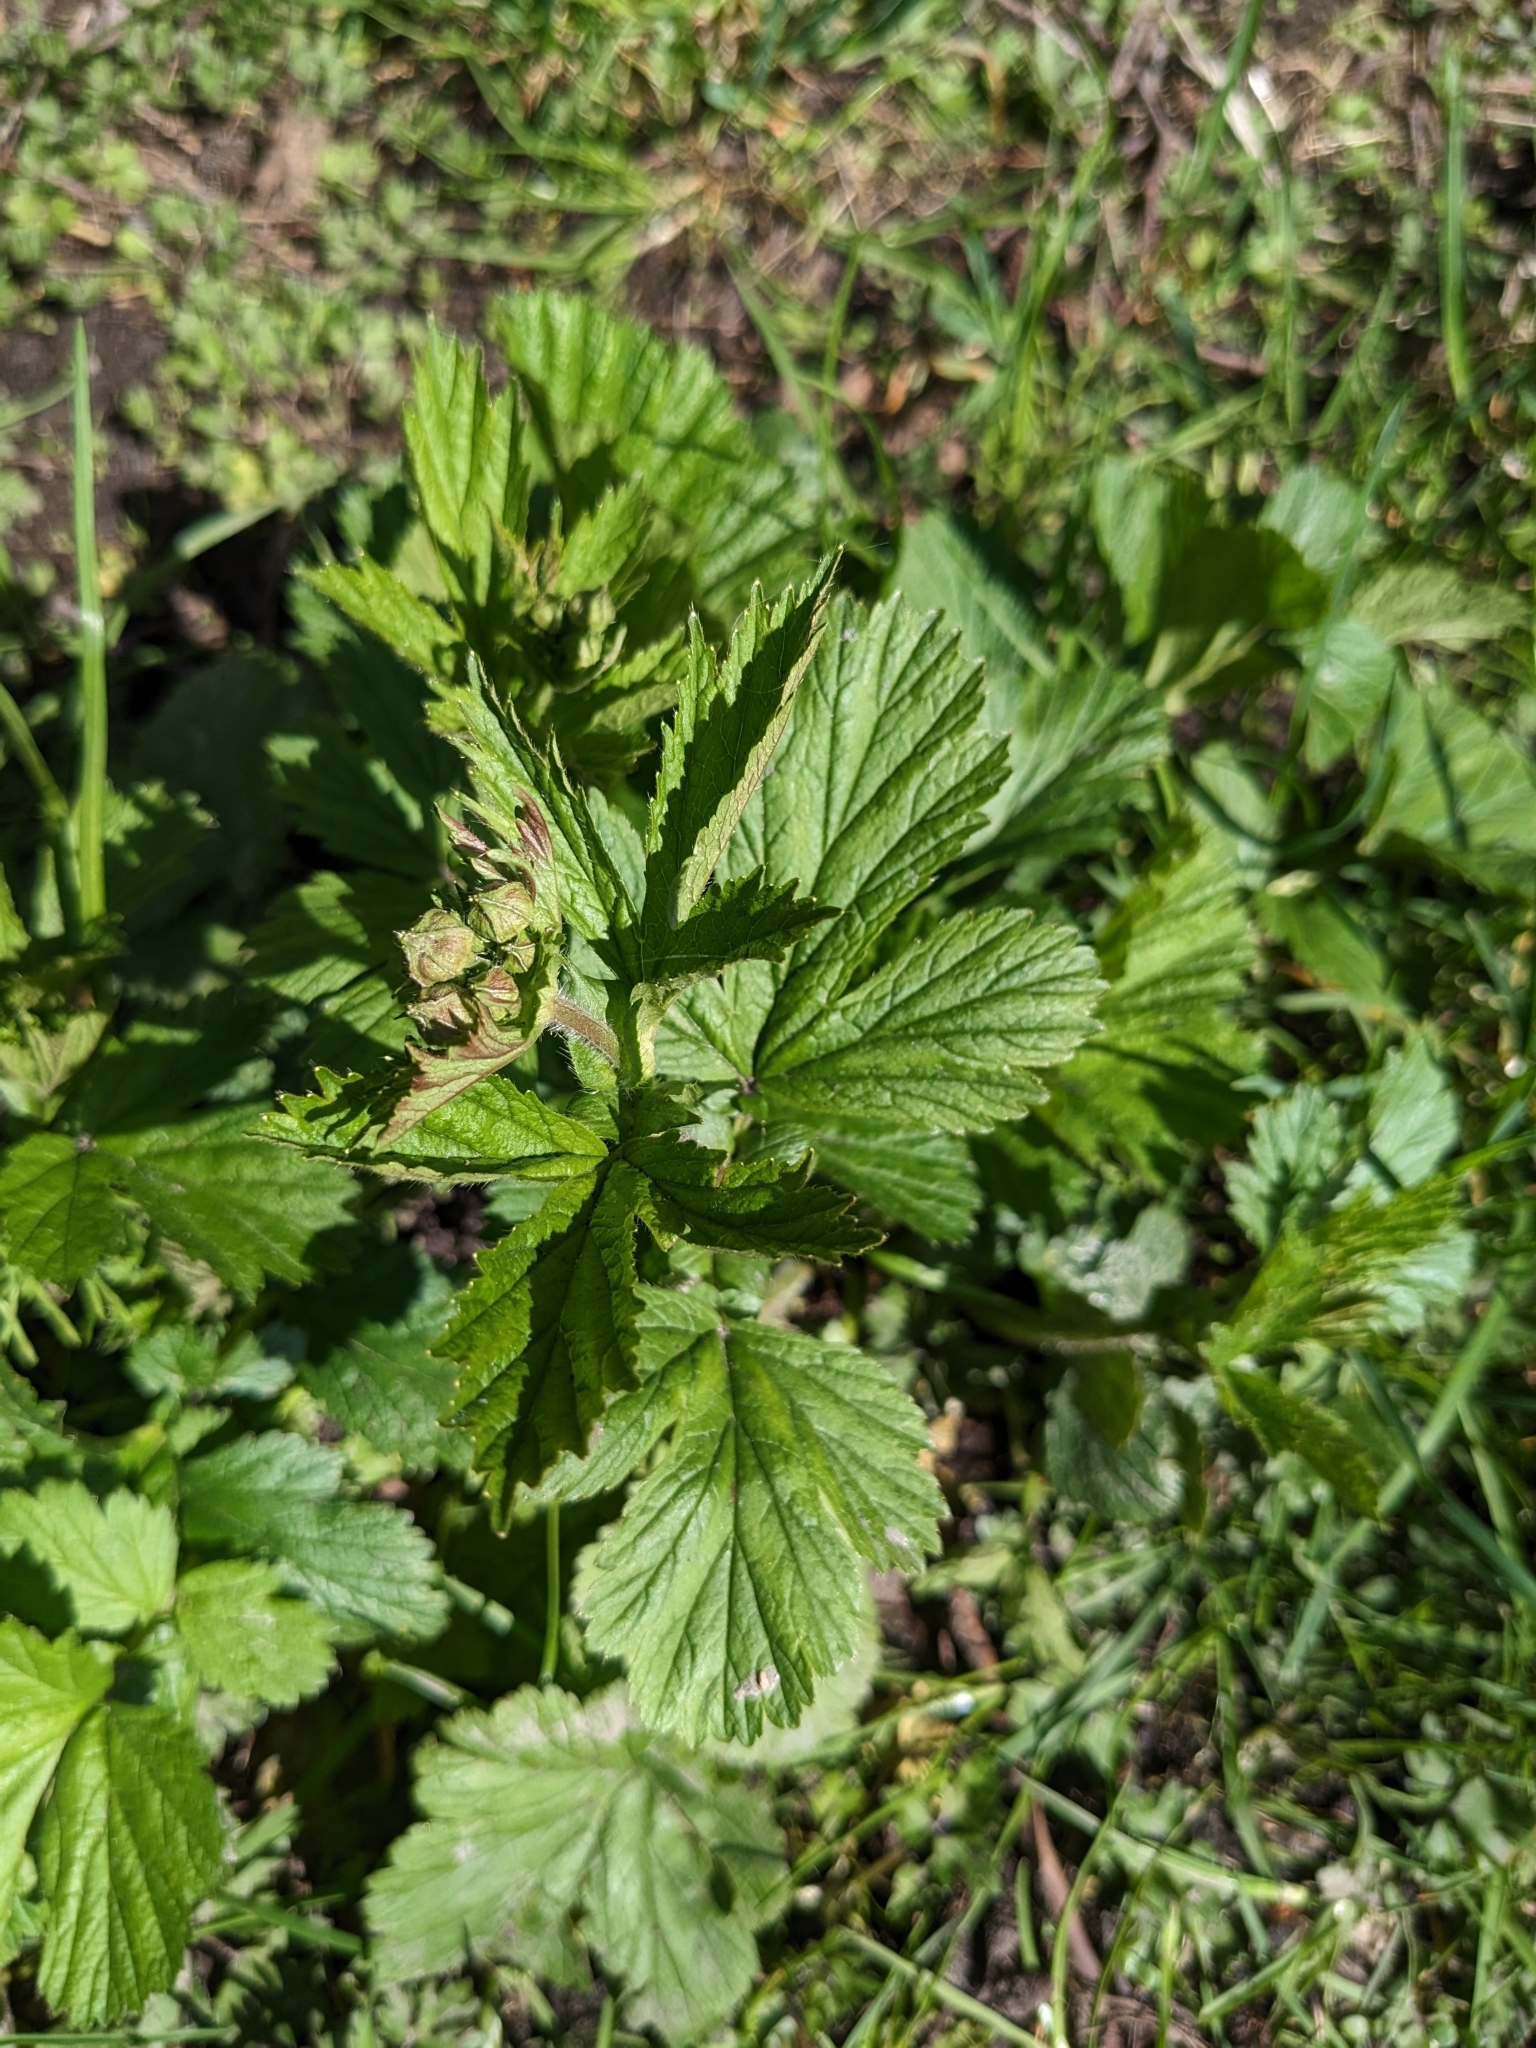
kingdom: Plantae
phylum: Tracheophyta
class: Magnoliopsida
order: Rosales
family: Rosaceae
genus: Geum
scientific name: Geum macrophyllum
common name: Large-leaved avens
